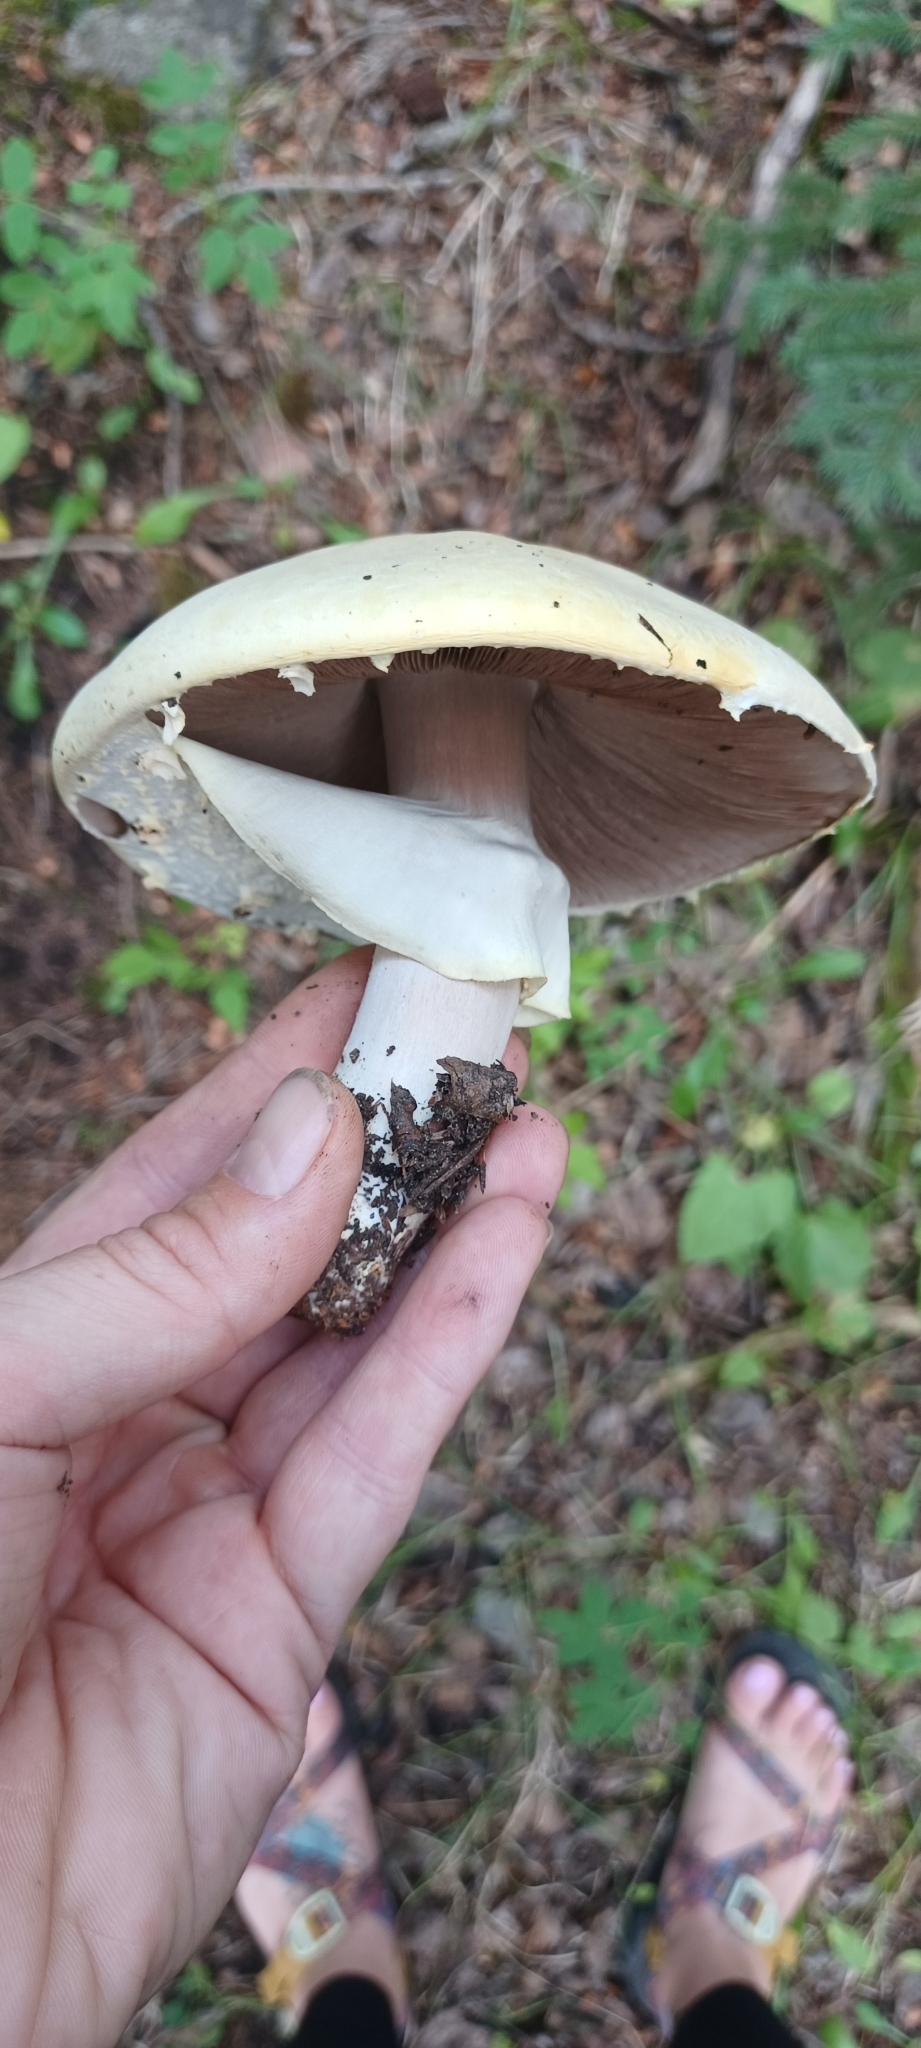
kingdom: Fungi
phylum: Basidiomycota
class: Agaricomycetes
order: Agaricales
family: Agaricaceae
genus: Agaricus
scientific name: Agaricus didymus
